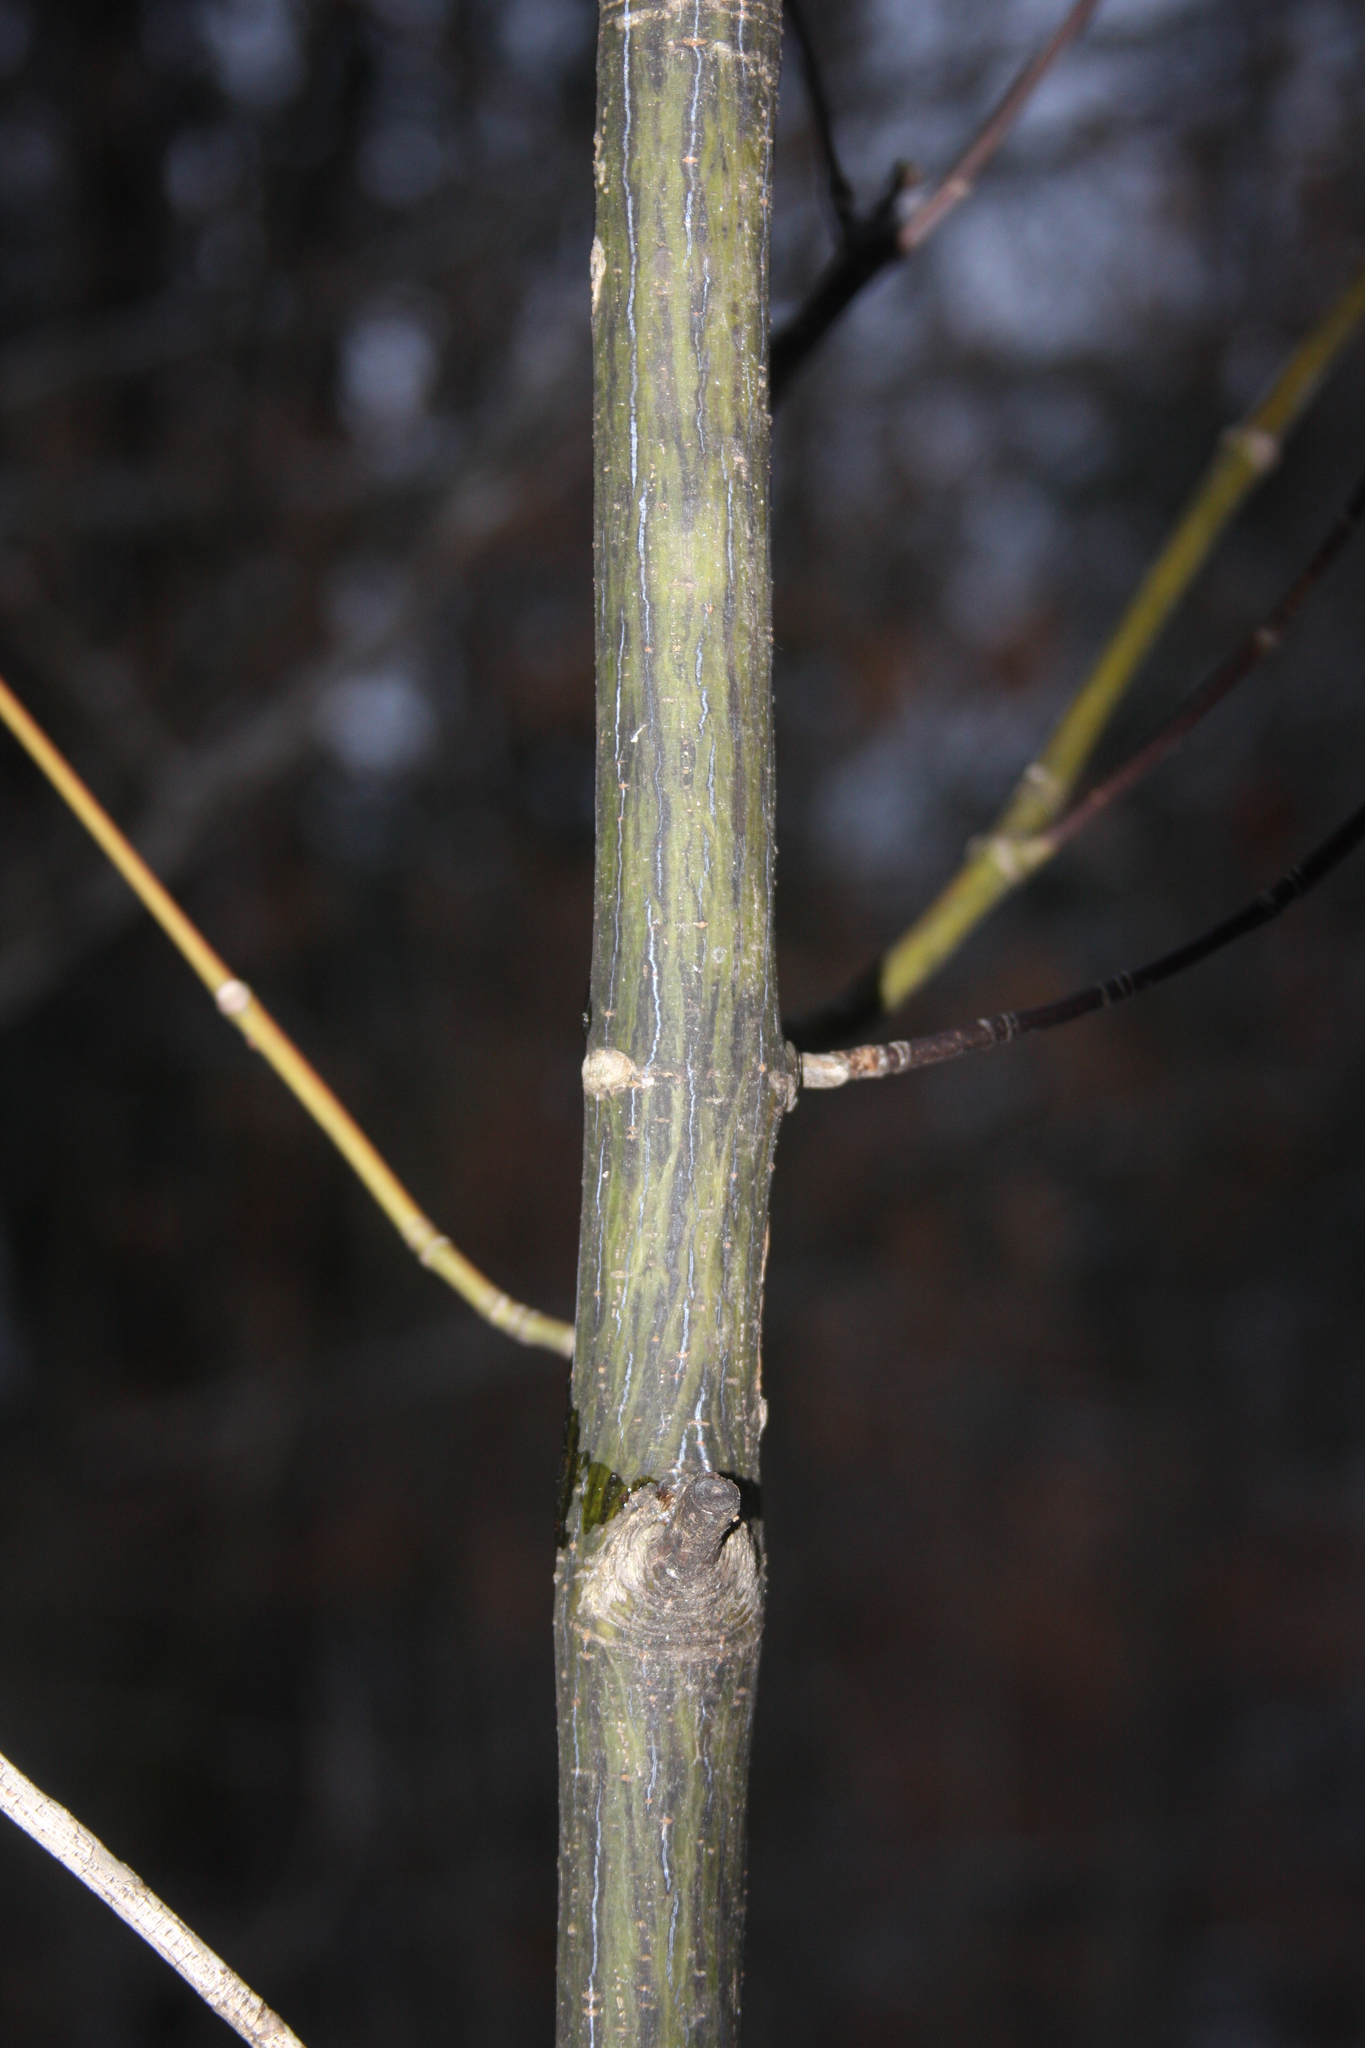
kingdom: Plantae
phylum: Tracheophyta
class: Magnoliopsida
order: Sapindales
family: Sapindaceae
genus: Acer
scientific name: Acer pensylvanicum
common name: Moosewood
